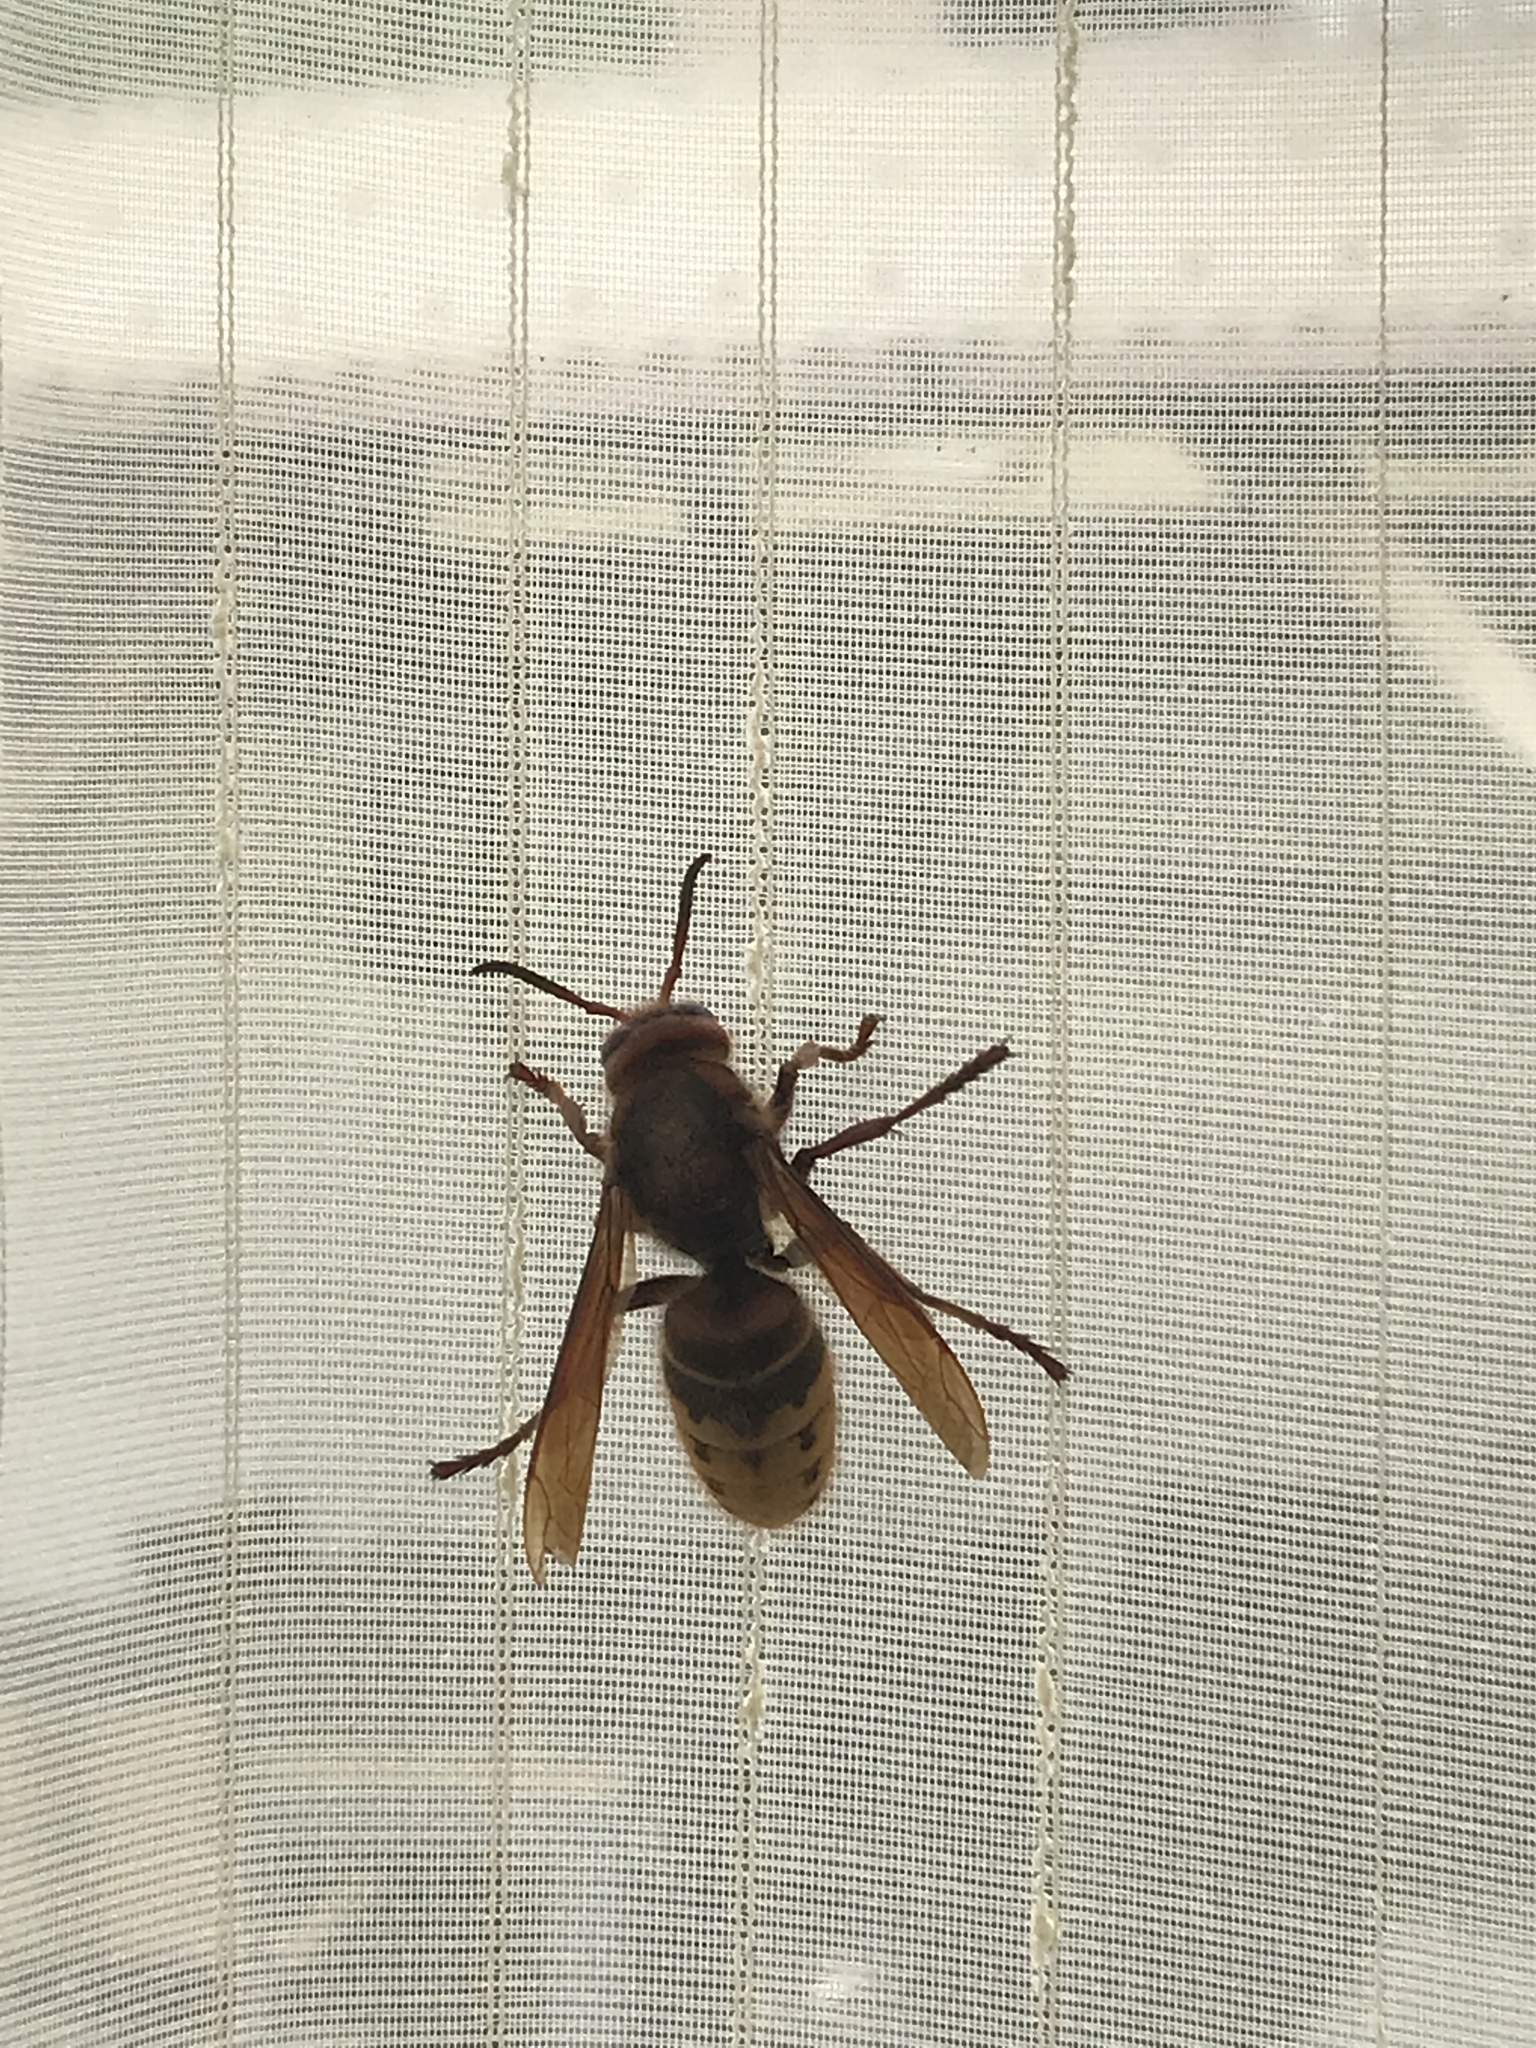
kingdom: Animalia
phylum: Arthropoda
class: Insecta
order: Hymenoptera
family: Vespidae
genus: Vespa
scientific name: Vespa crabro
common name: Hornet
